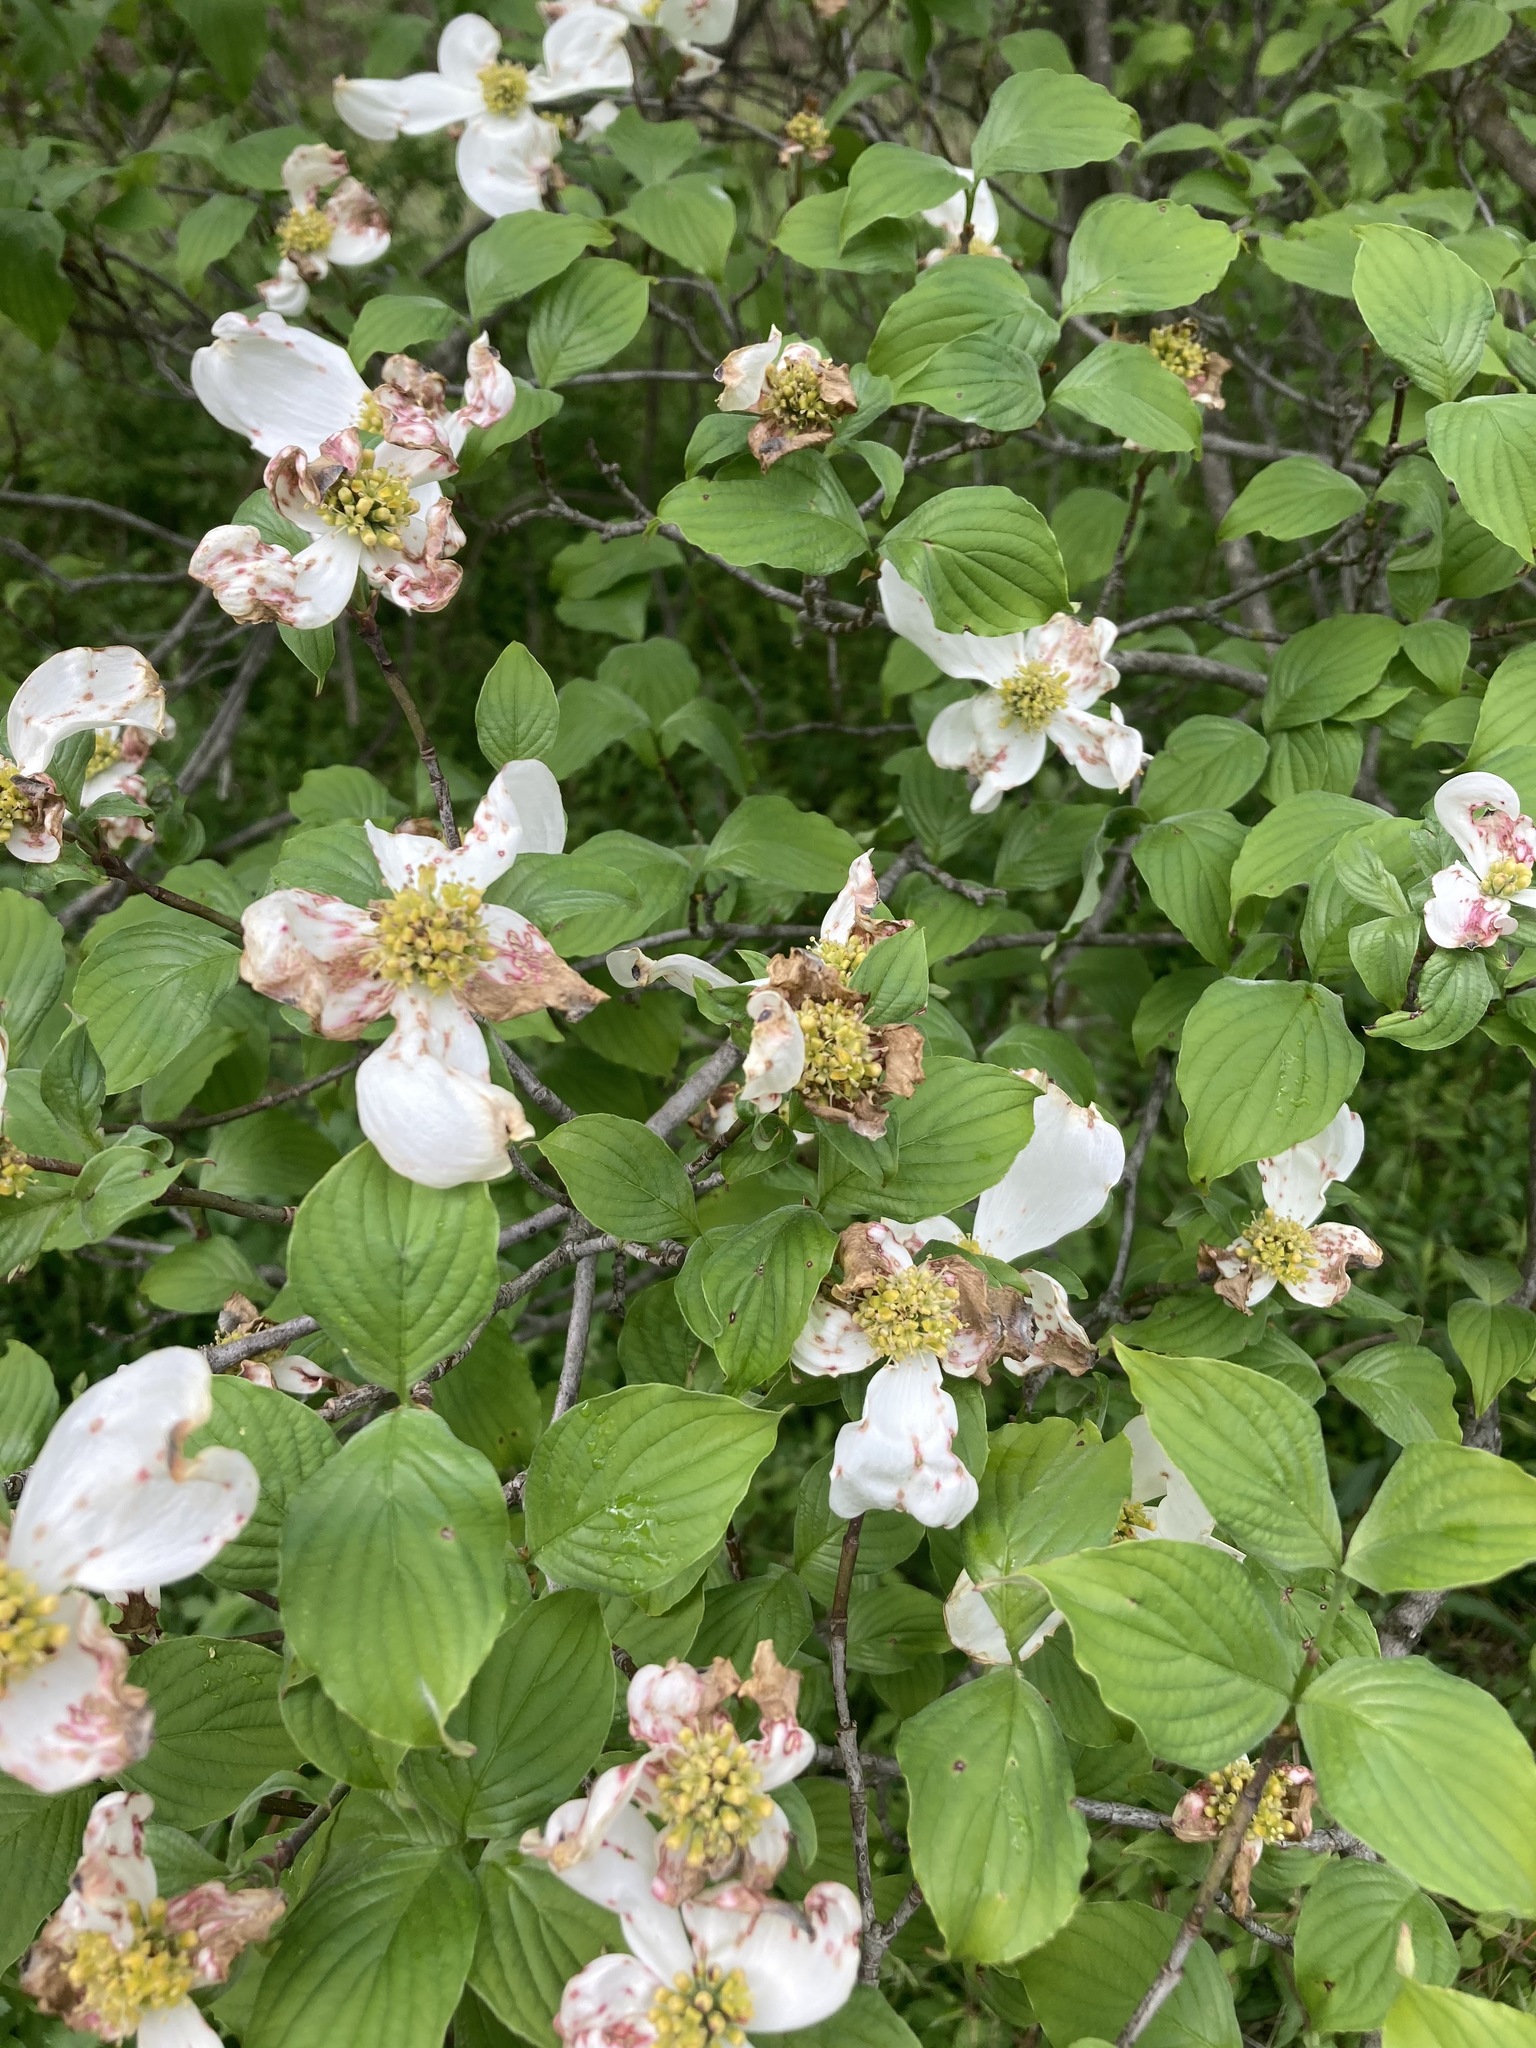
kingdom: Plantae
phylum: Tracheophyta
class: Magnoliopsida
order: Cornales
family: Cornaceae
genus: Cornus
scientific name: Cornus florida
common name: Flowering dogwood
